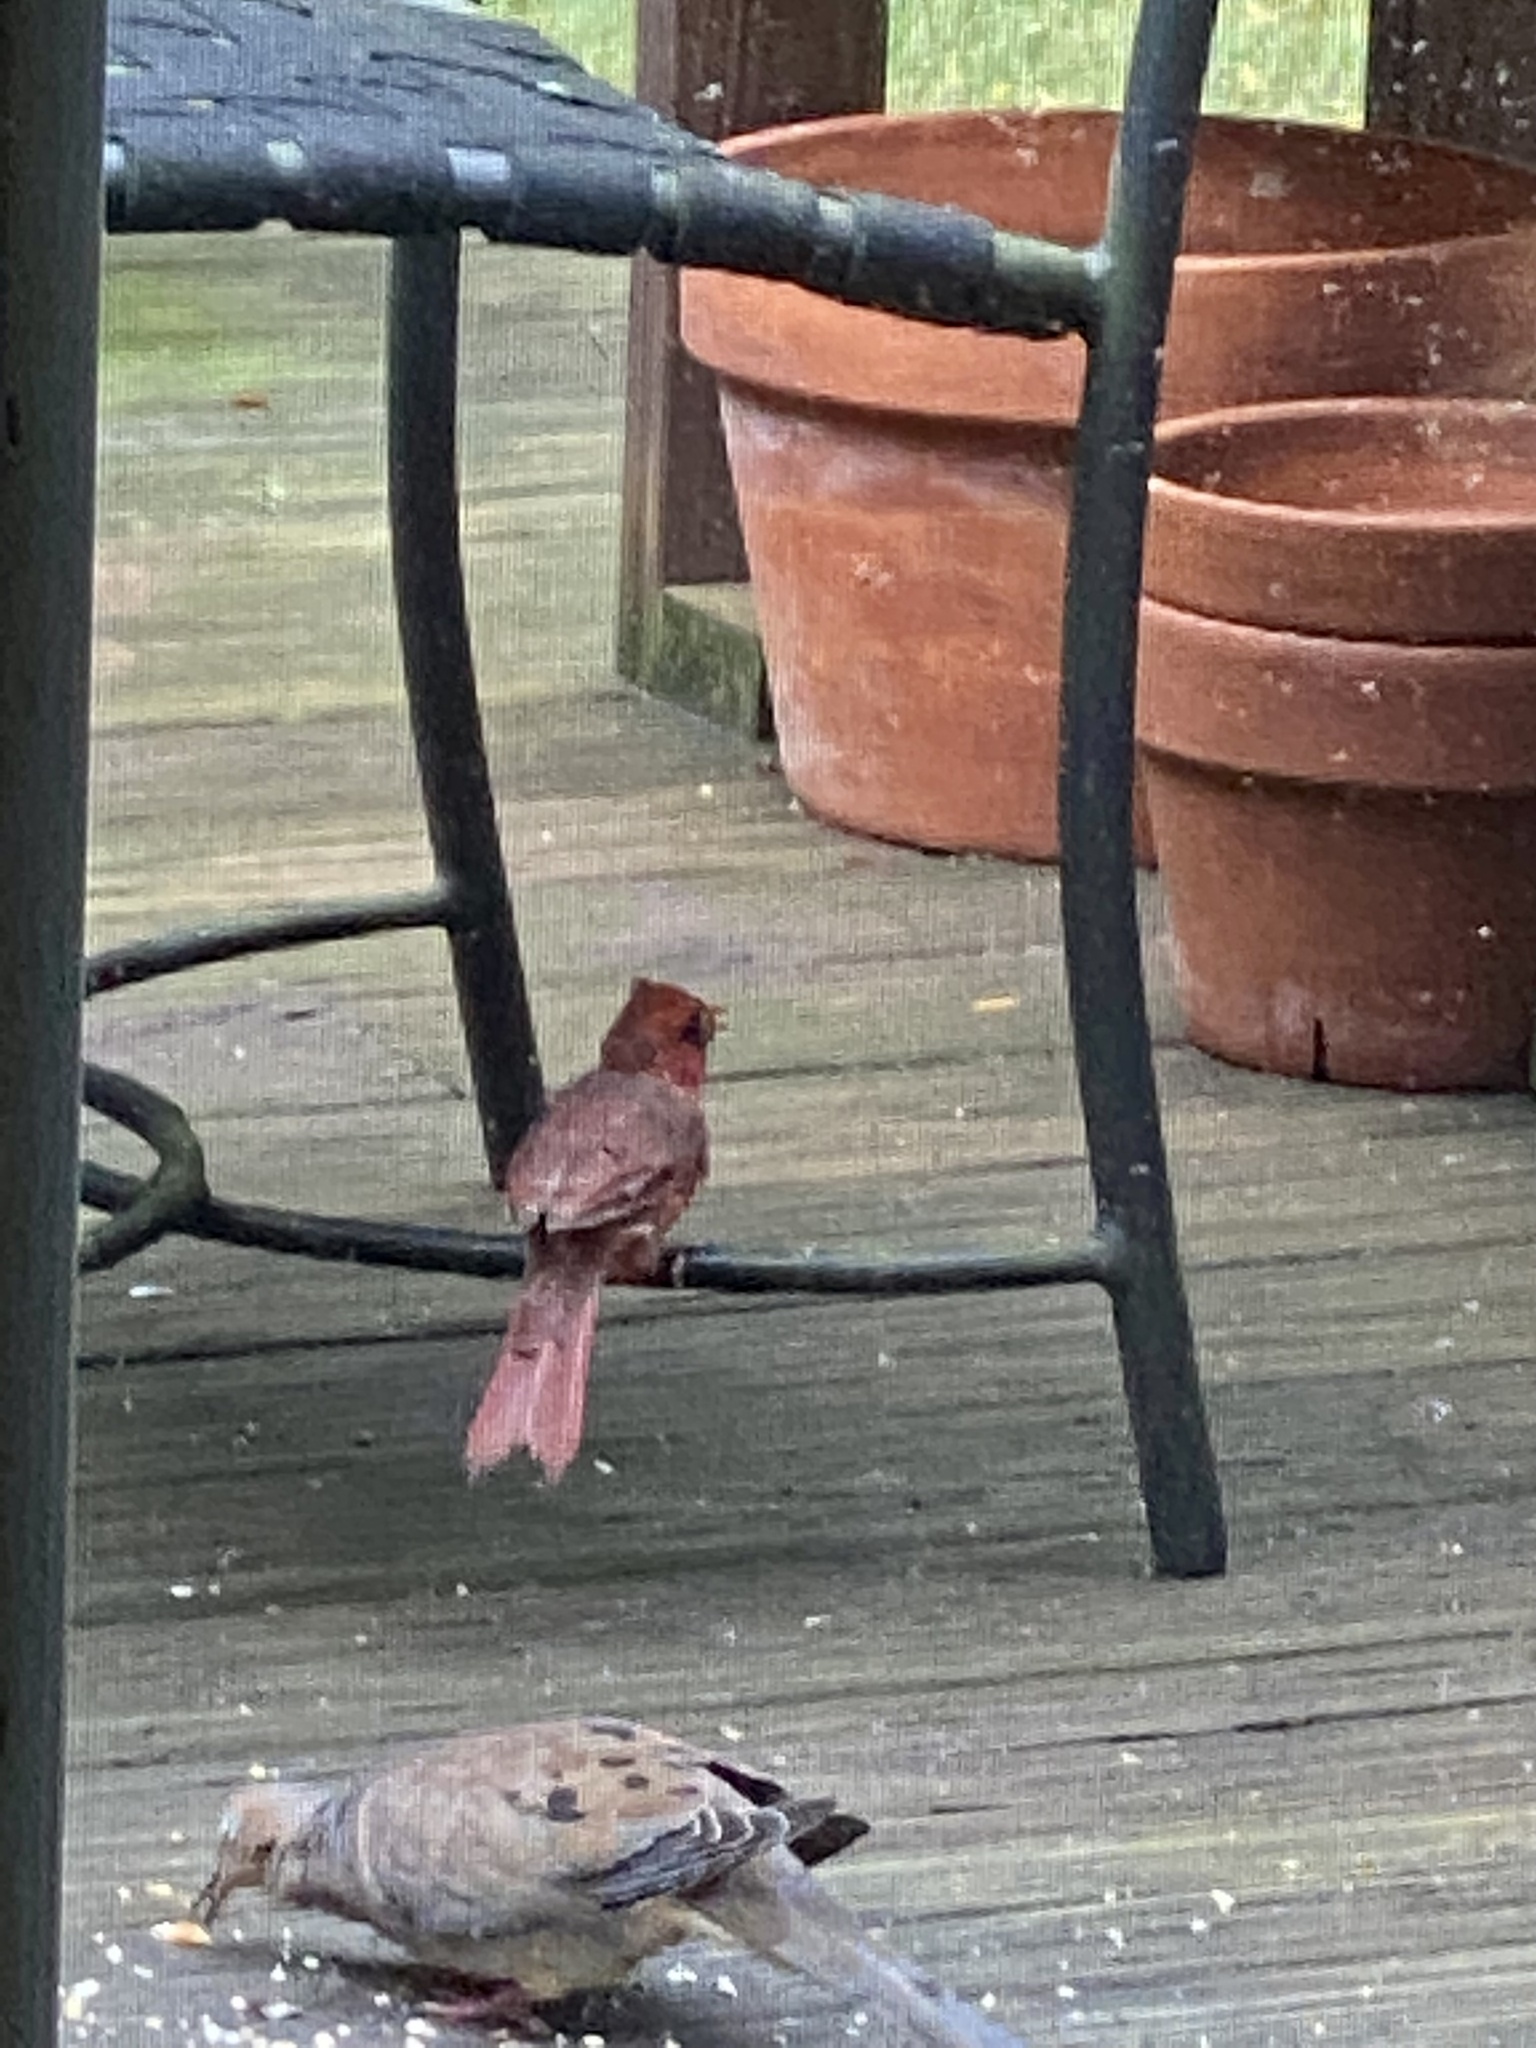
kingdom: Animalia
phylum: Chordata
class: Aves
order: Passeriformes
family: Cardinalidae
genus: Cardinalis
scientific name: Cardinalis cardinalis
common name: Northern cardinal
